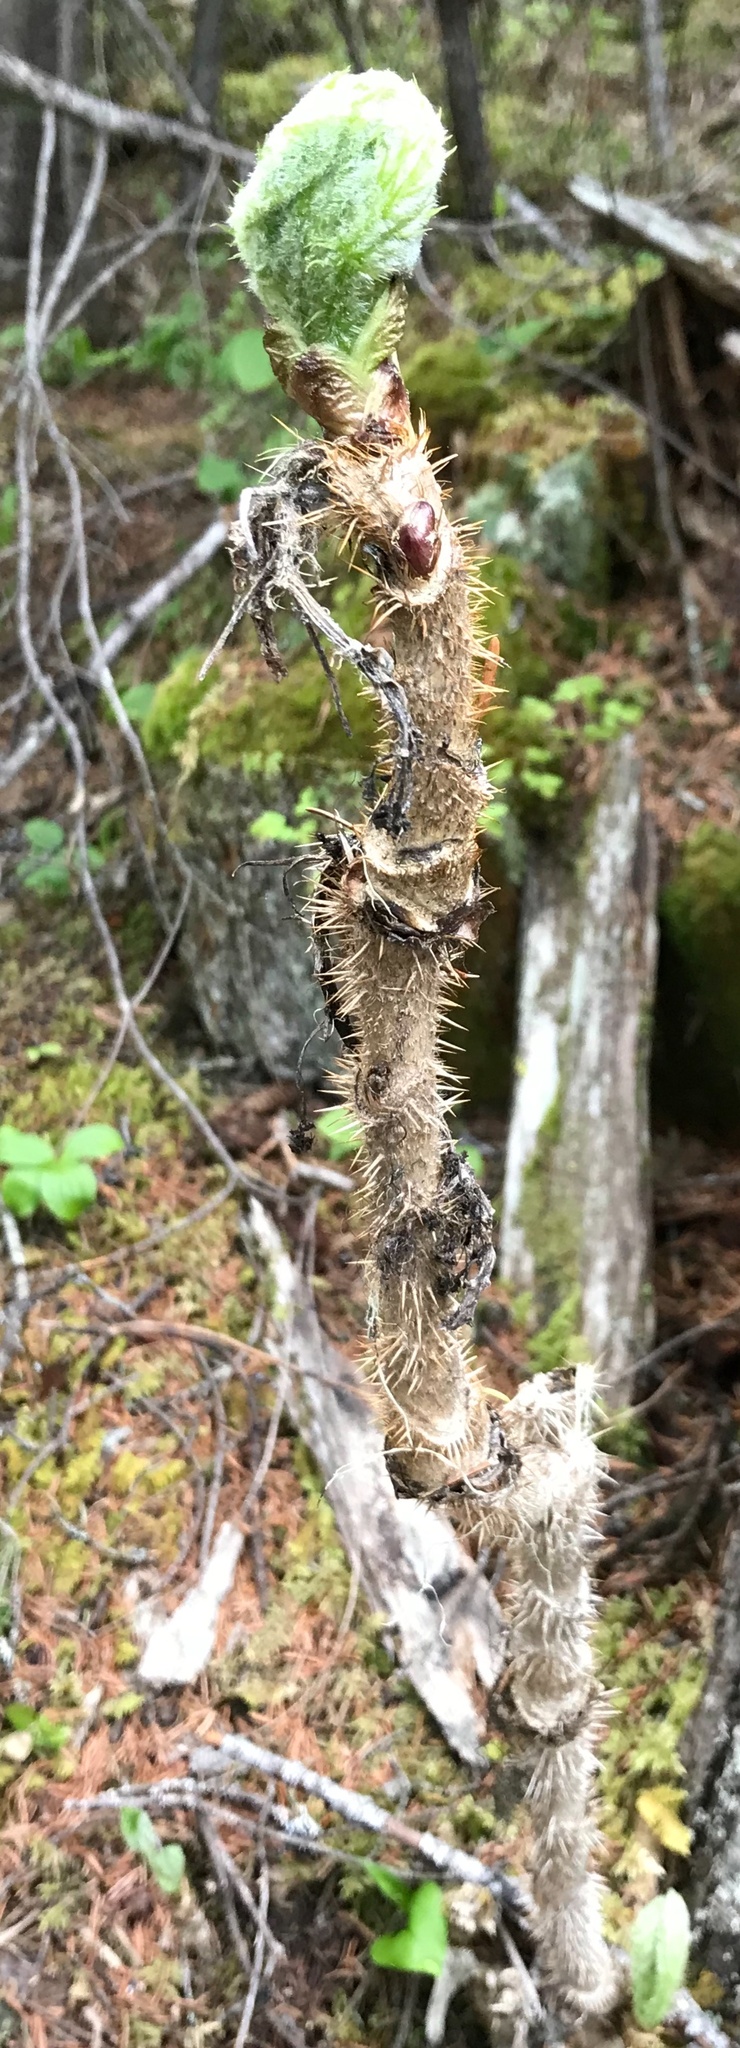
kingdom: Plantae
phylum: Tracheophyta
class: Magnoliopsida
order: Apiales
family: Araliaceae
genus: Oplopanax
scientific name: Oplopanax horridus
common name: Devil's walking-stick
